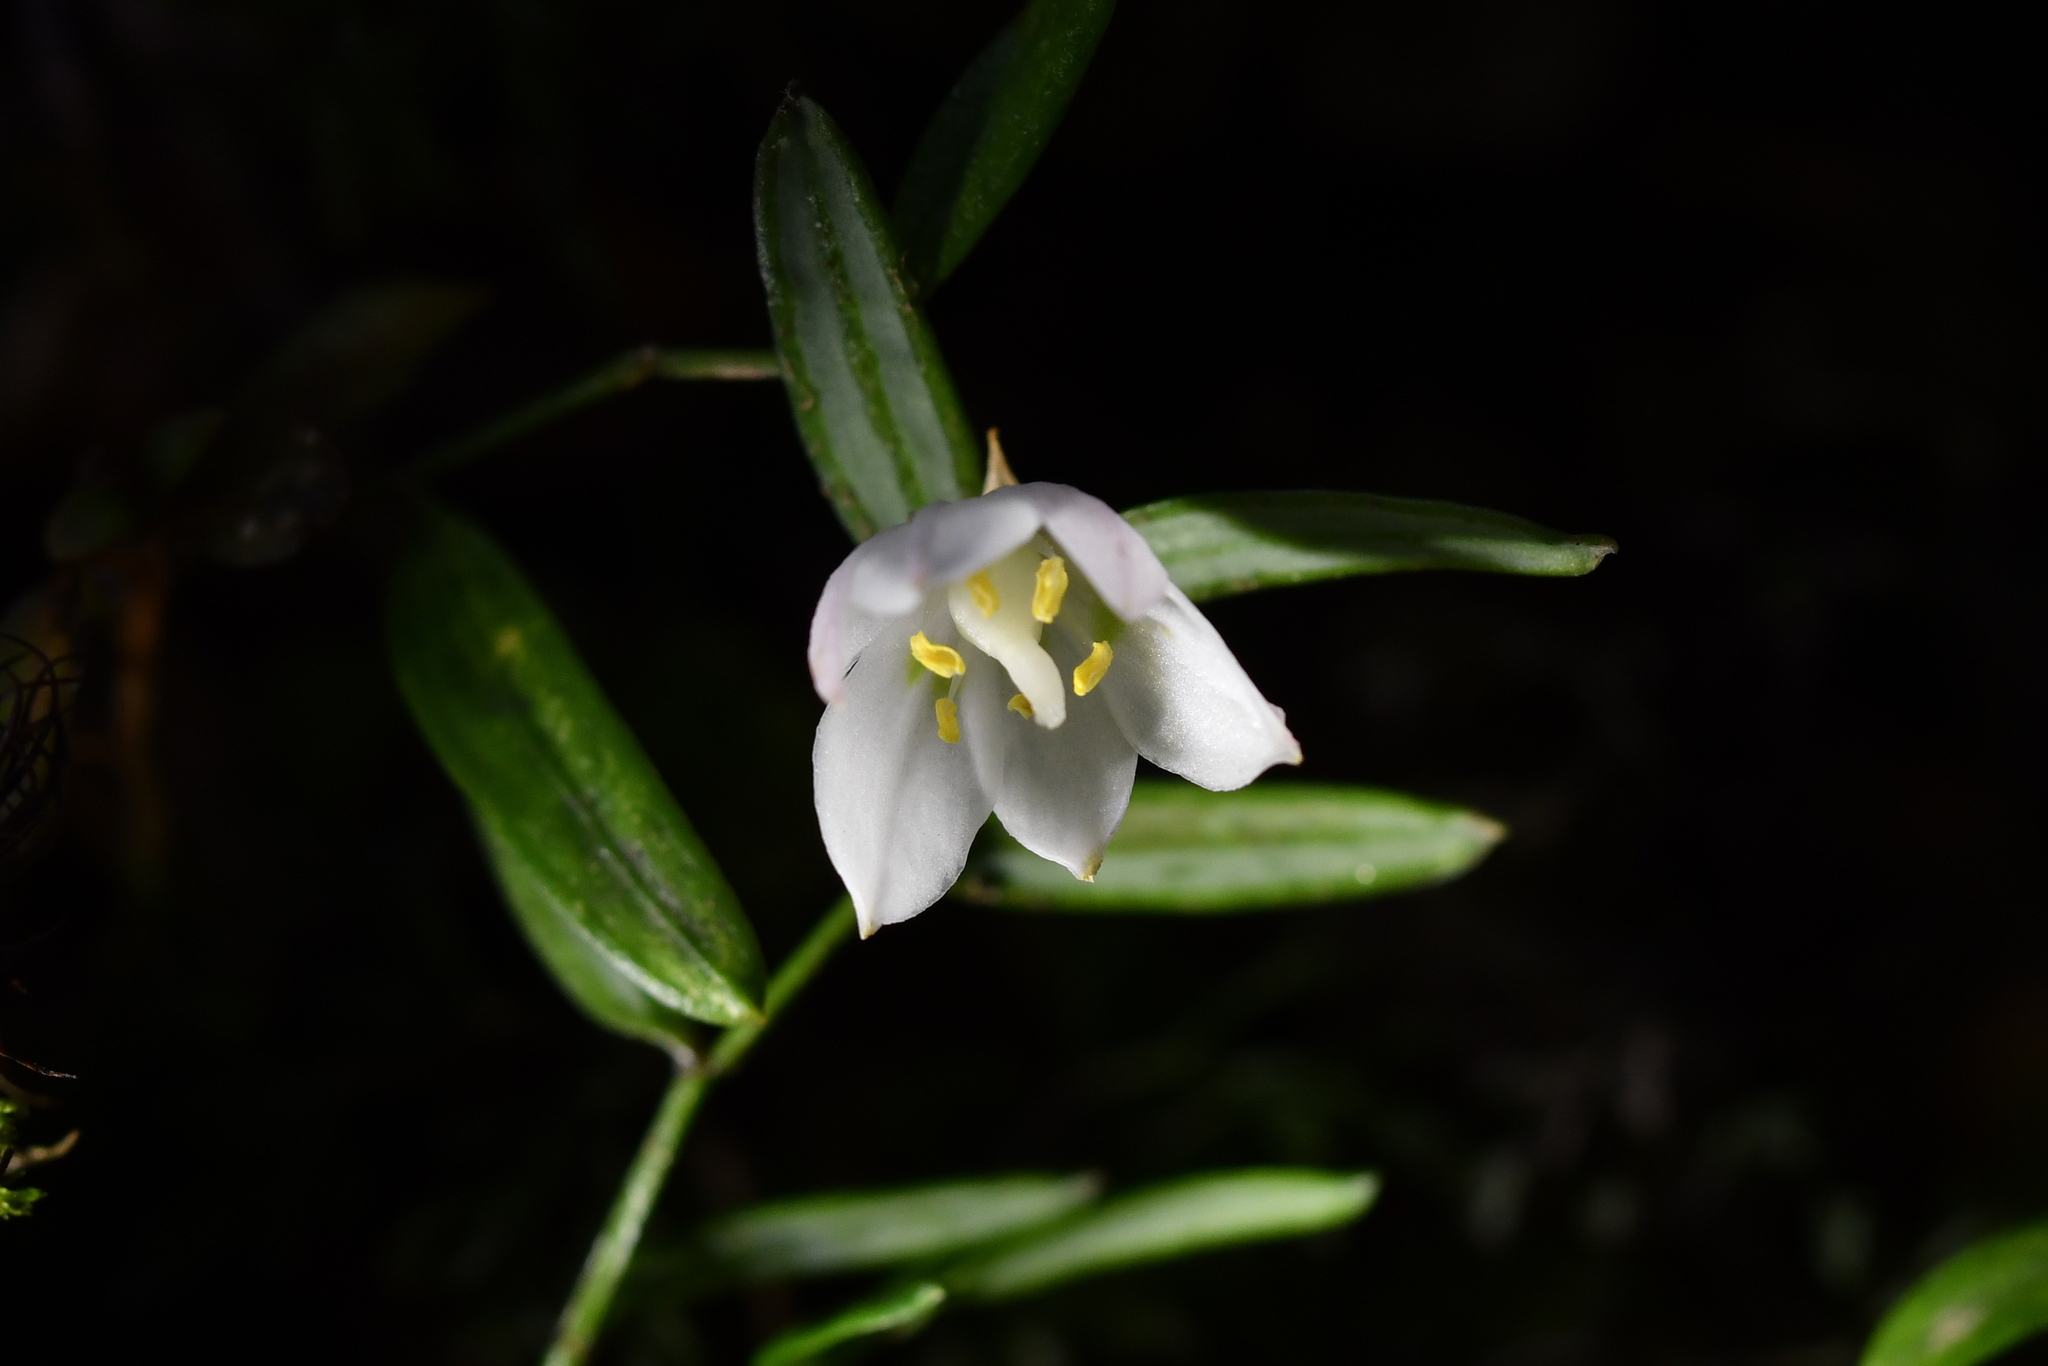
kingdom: Plantae
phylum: Tracheophyta
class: Liliopsida
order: Liliales
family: Alstroemeriaceae
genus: Luzuriaga
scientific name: Luzuriaga parviflora
